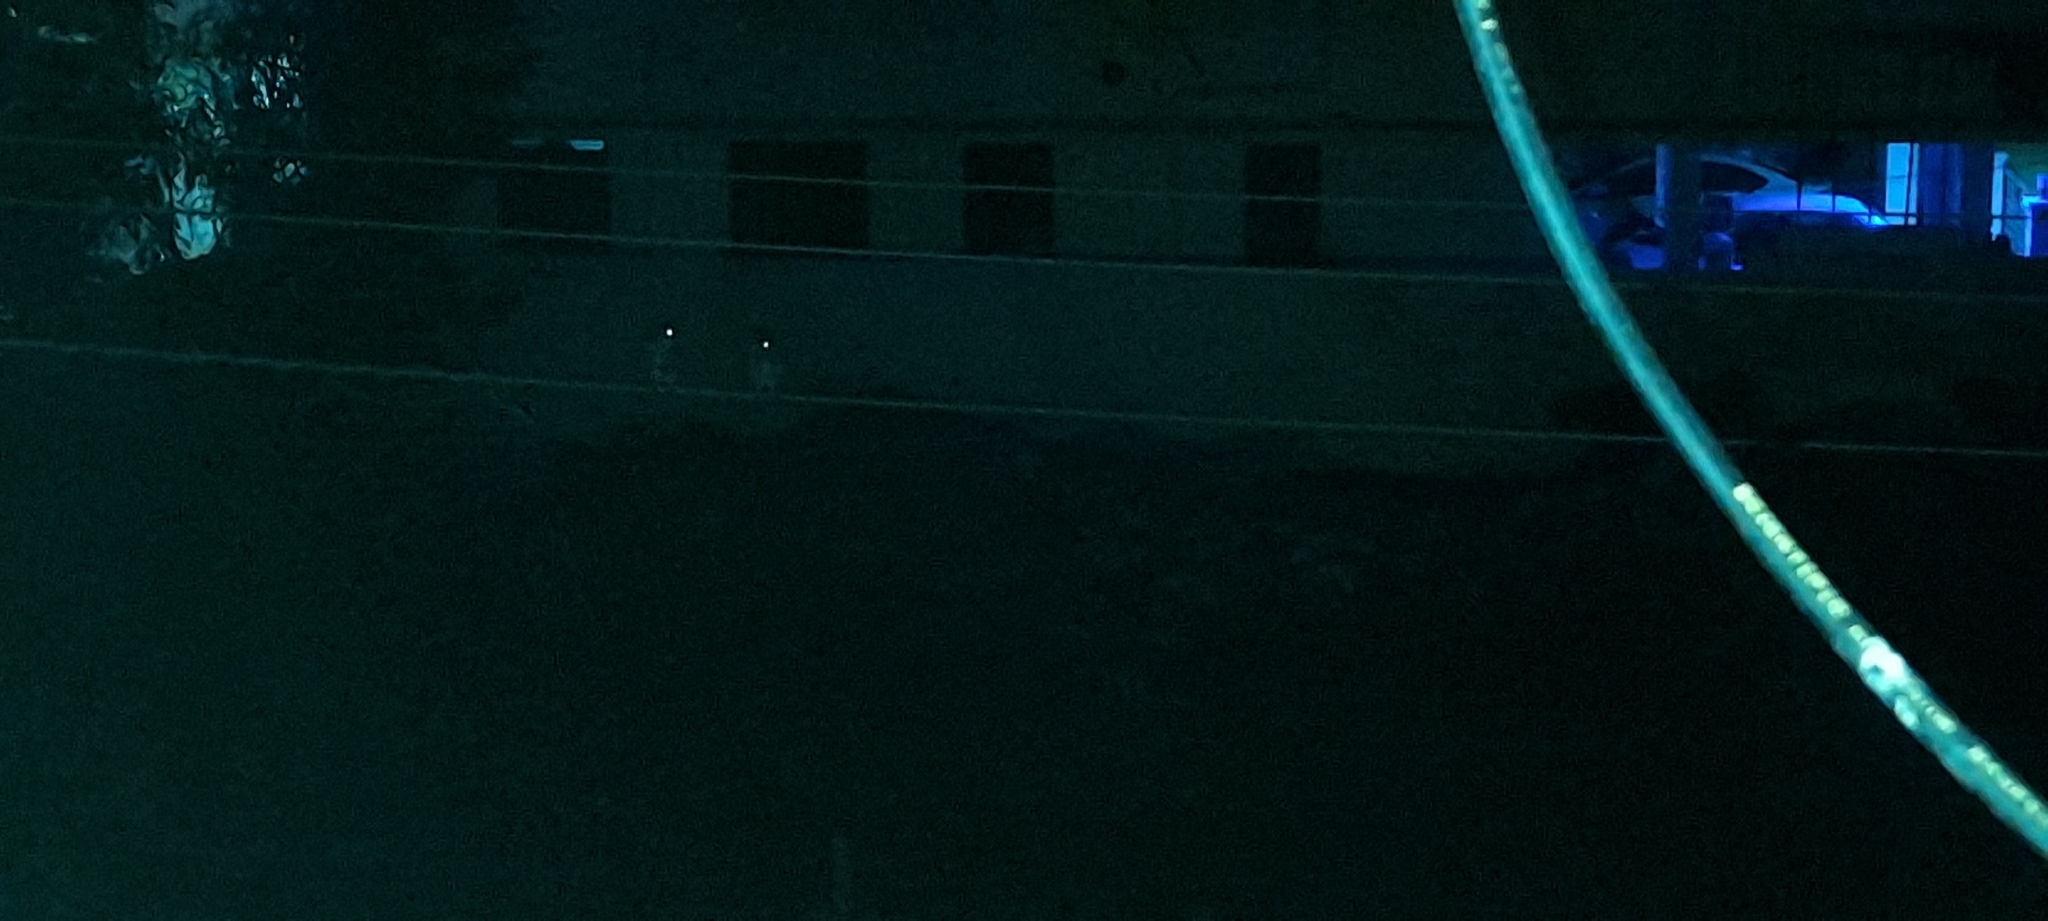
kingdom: Animalia
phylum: Chordata
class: Aves
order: Strigiformes
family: Strigidae
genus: Athene
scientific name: Athene brama
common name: Spotted owlet
